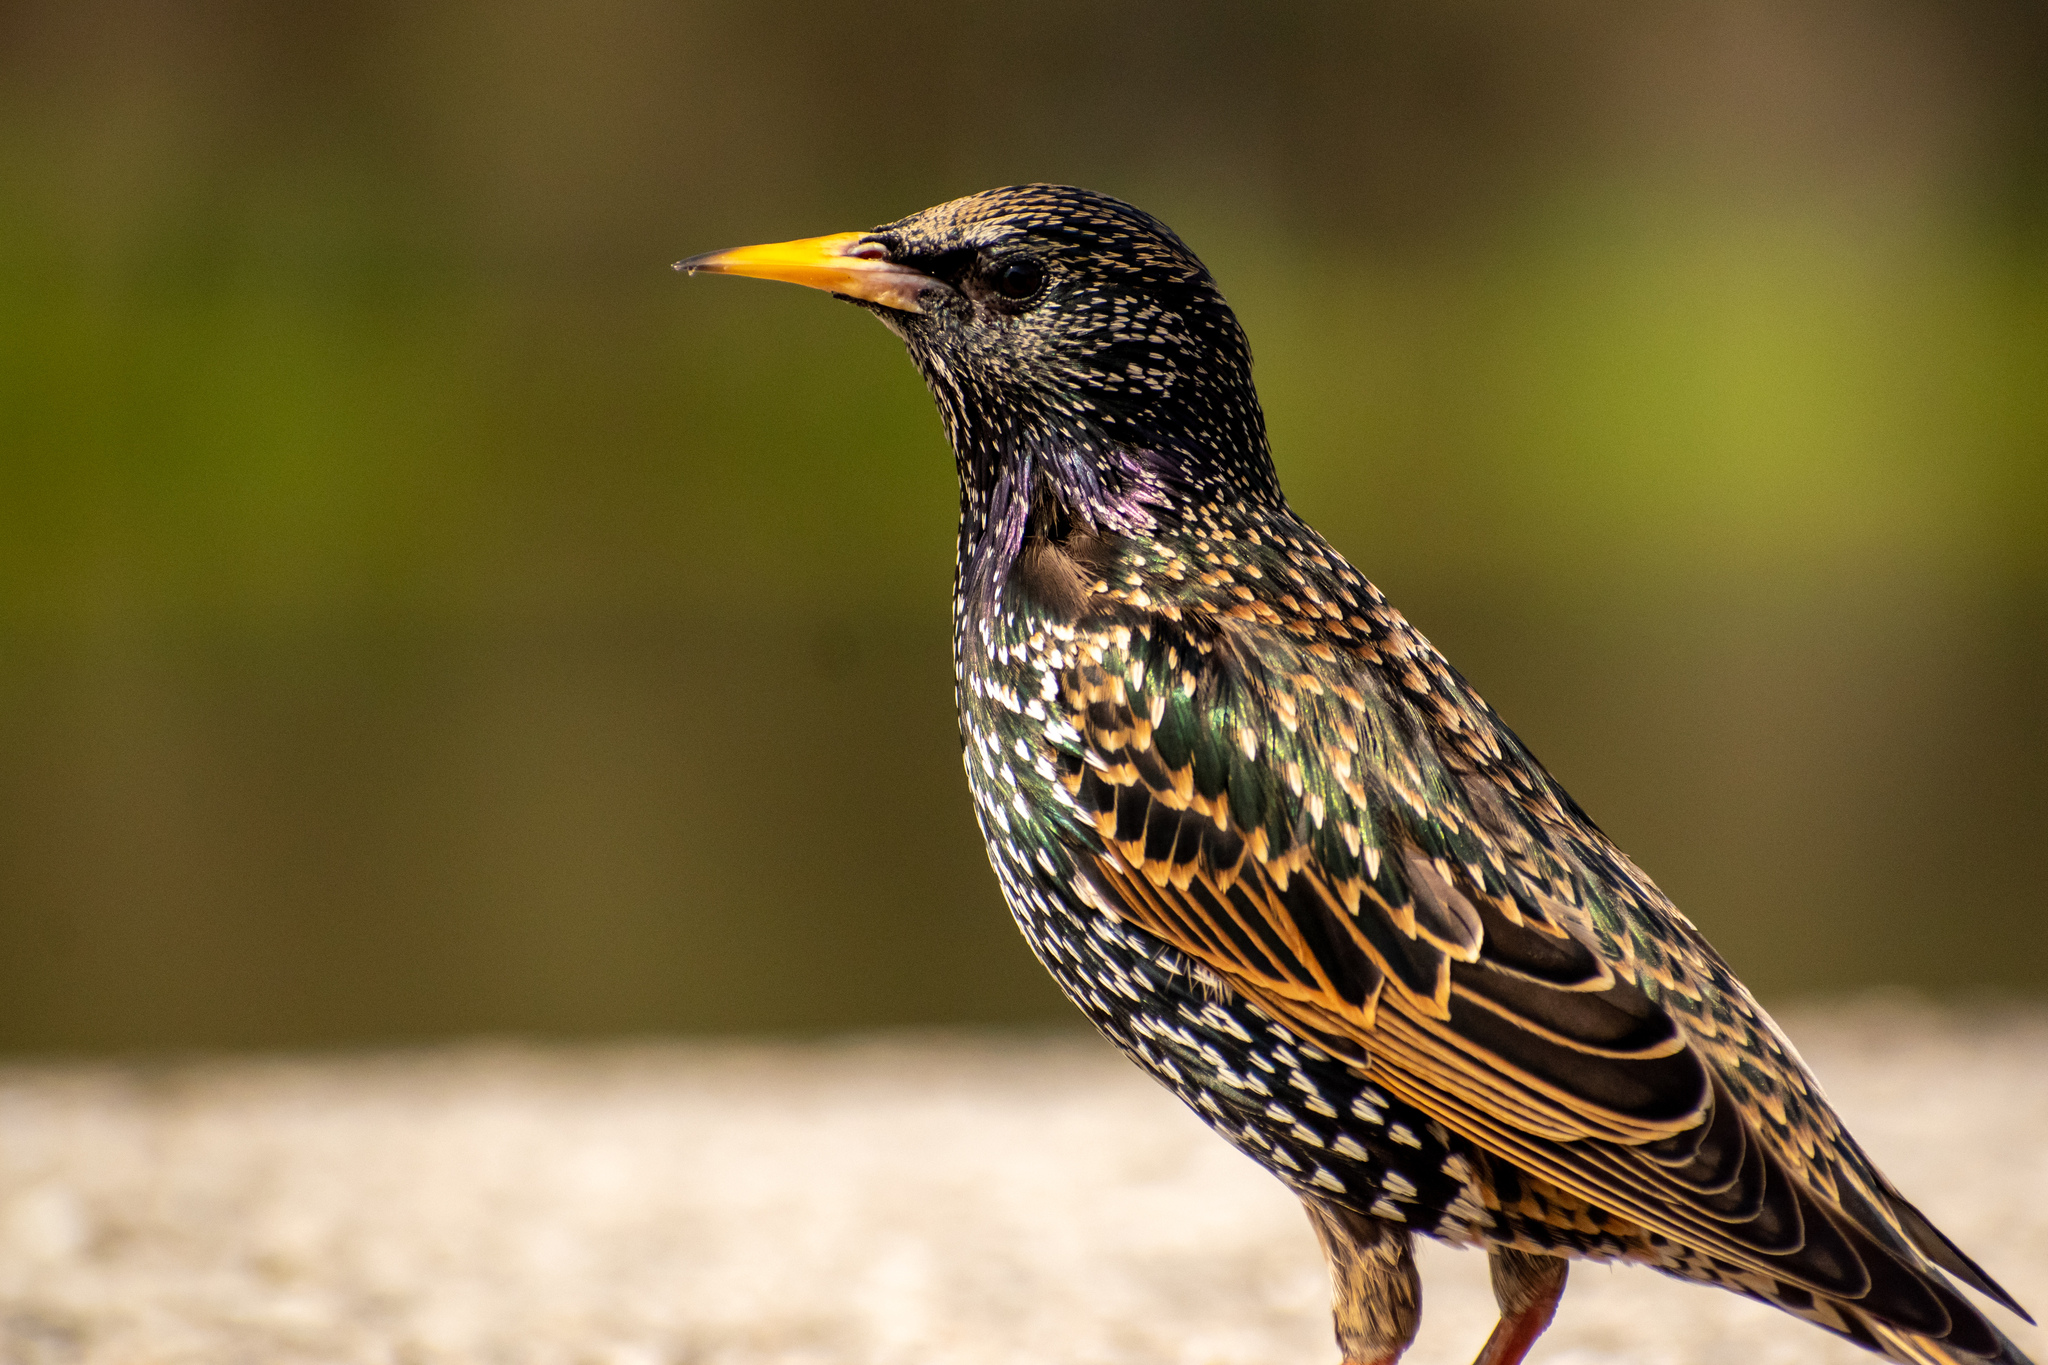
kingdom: Animalia
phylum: Chordata
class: Aves
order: Passeriformes
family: Sturnidae
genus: Sturnus
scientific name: Sturnus vulgaris
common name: Common starling
